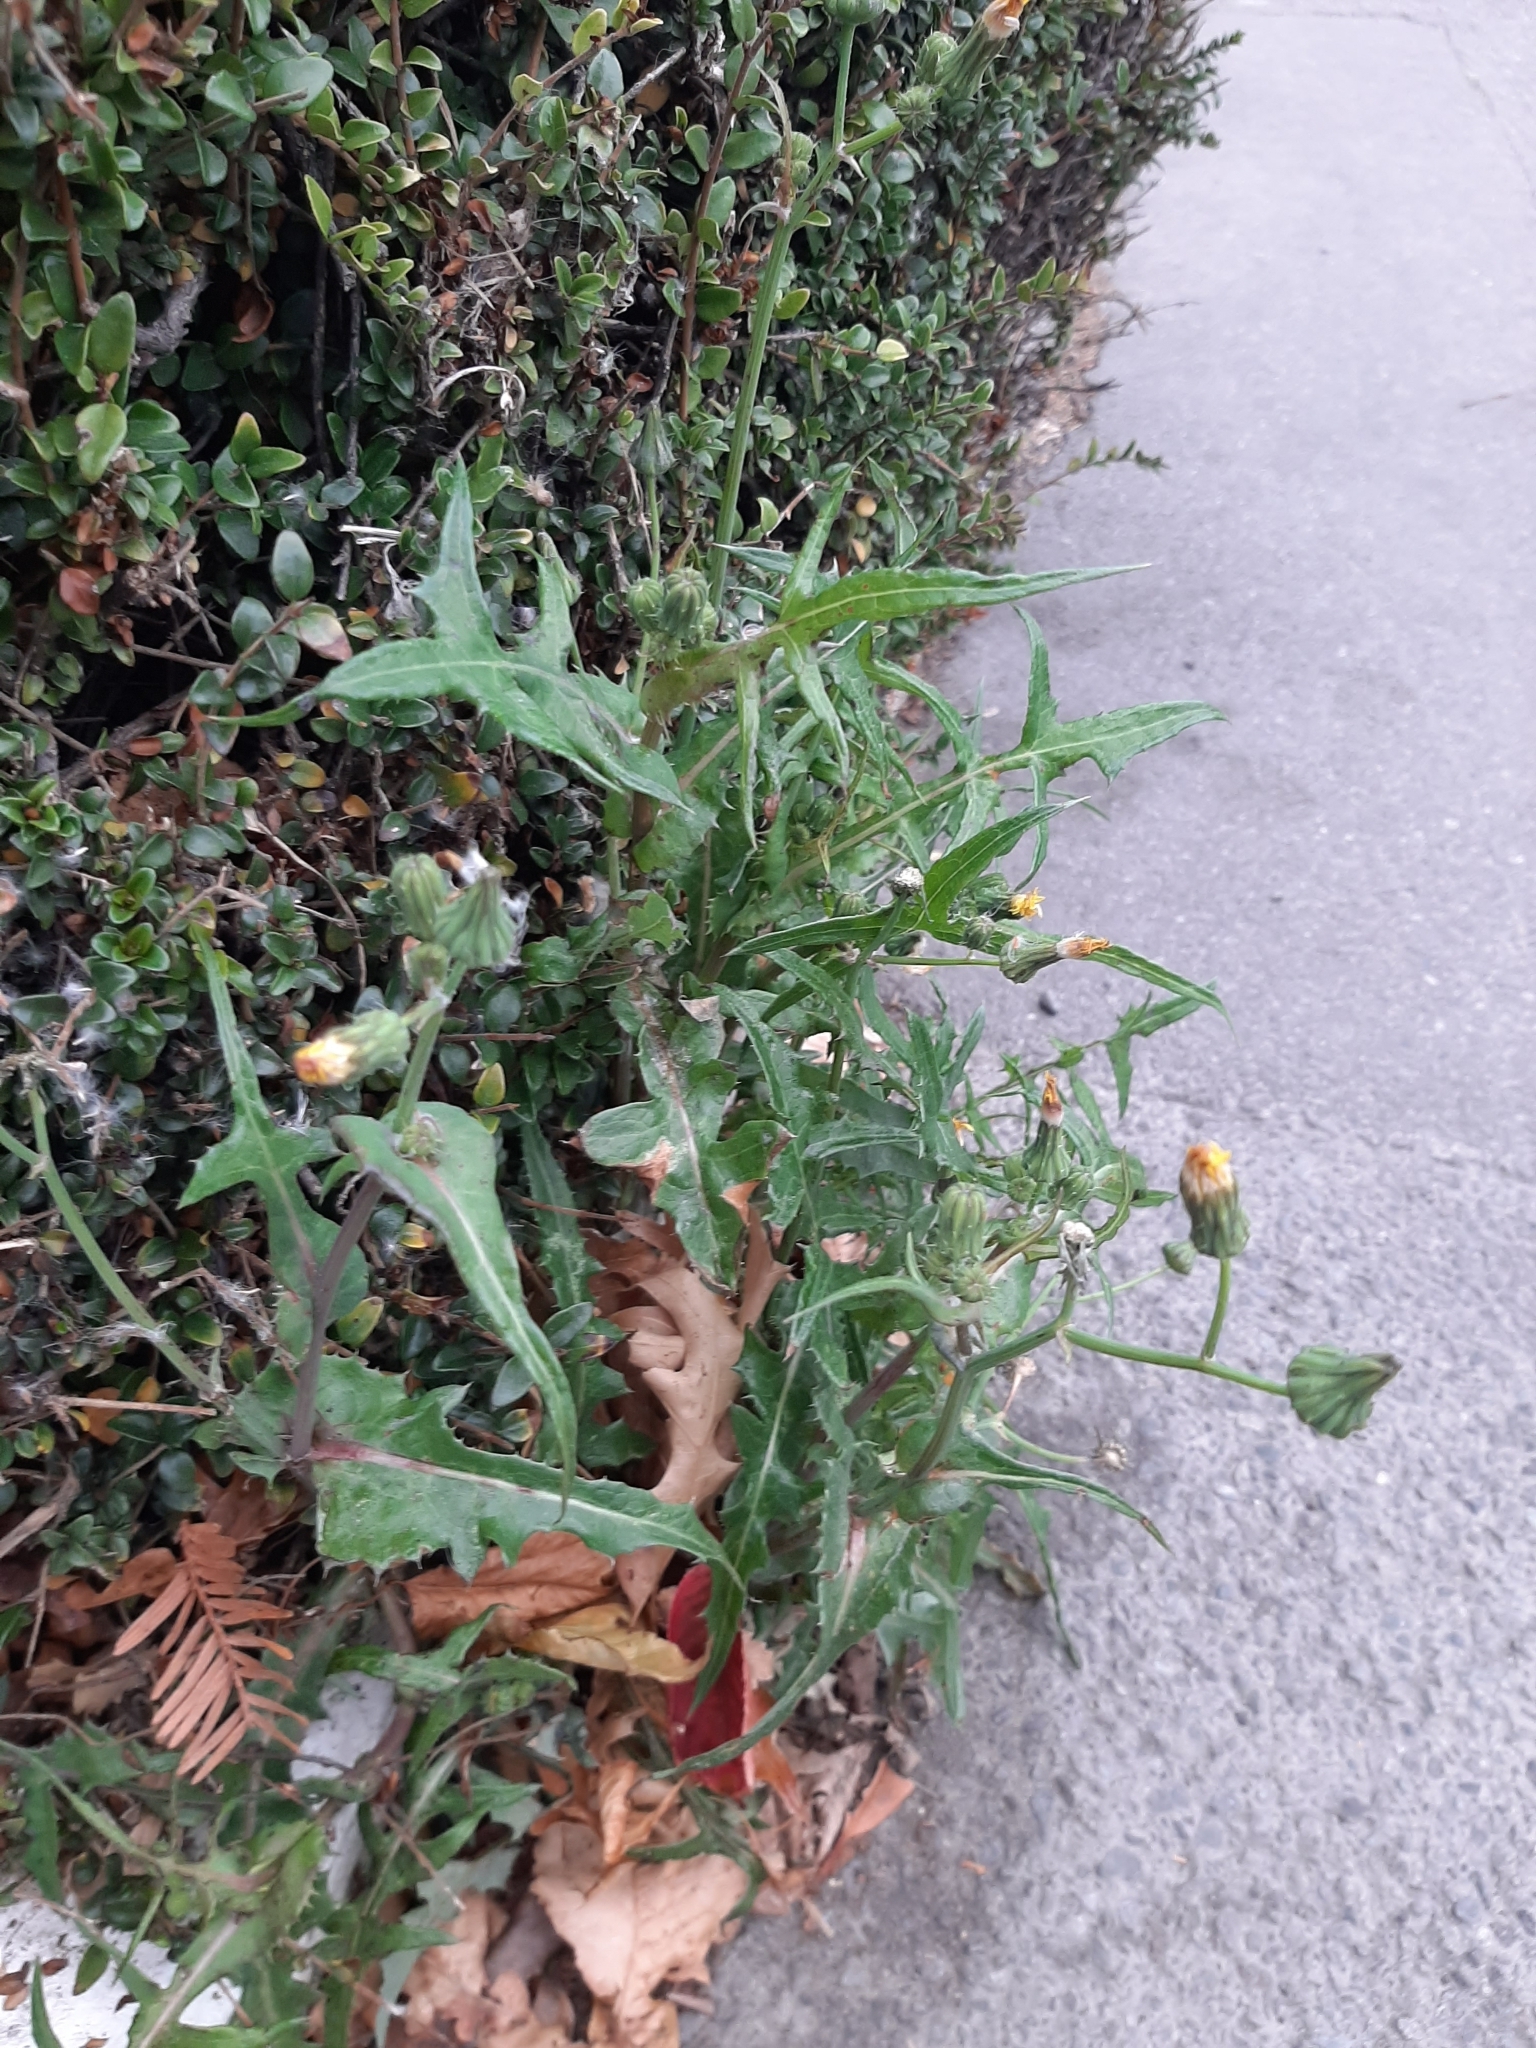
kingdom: Plantae
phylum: Tracheophyta
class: Magnoliopsida
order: Asterales
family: Asteraceae
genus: Sonchus
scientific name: Sonchus asper
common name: Prickly sow-thistle
